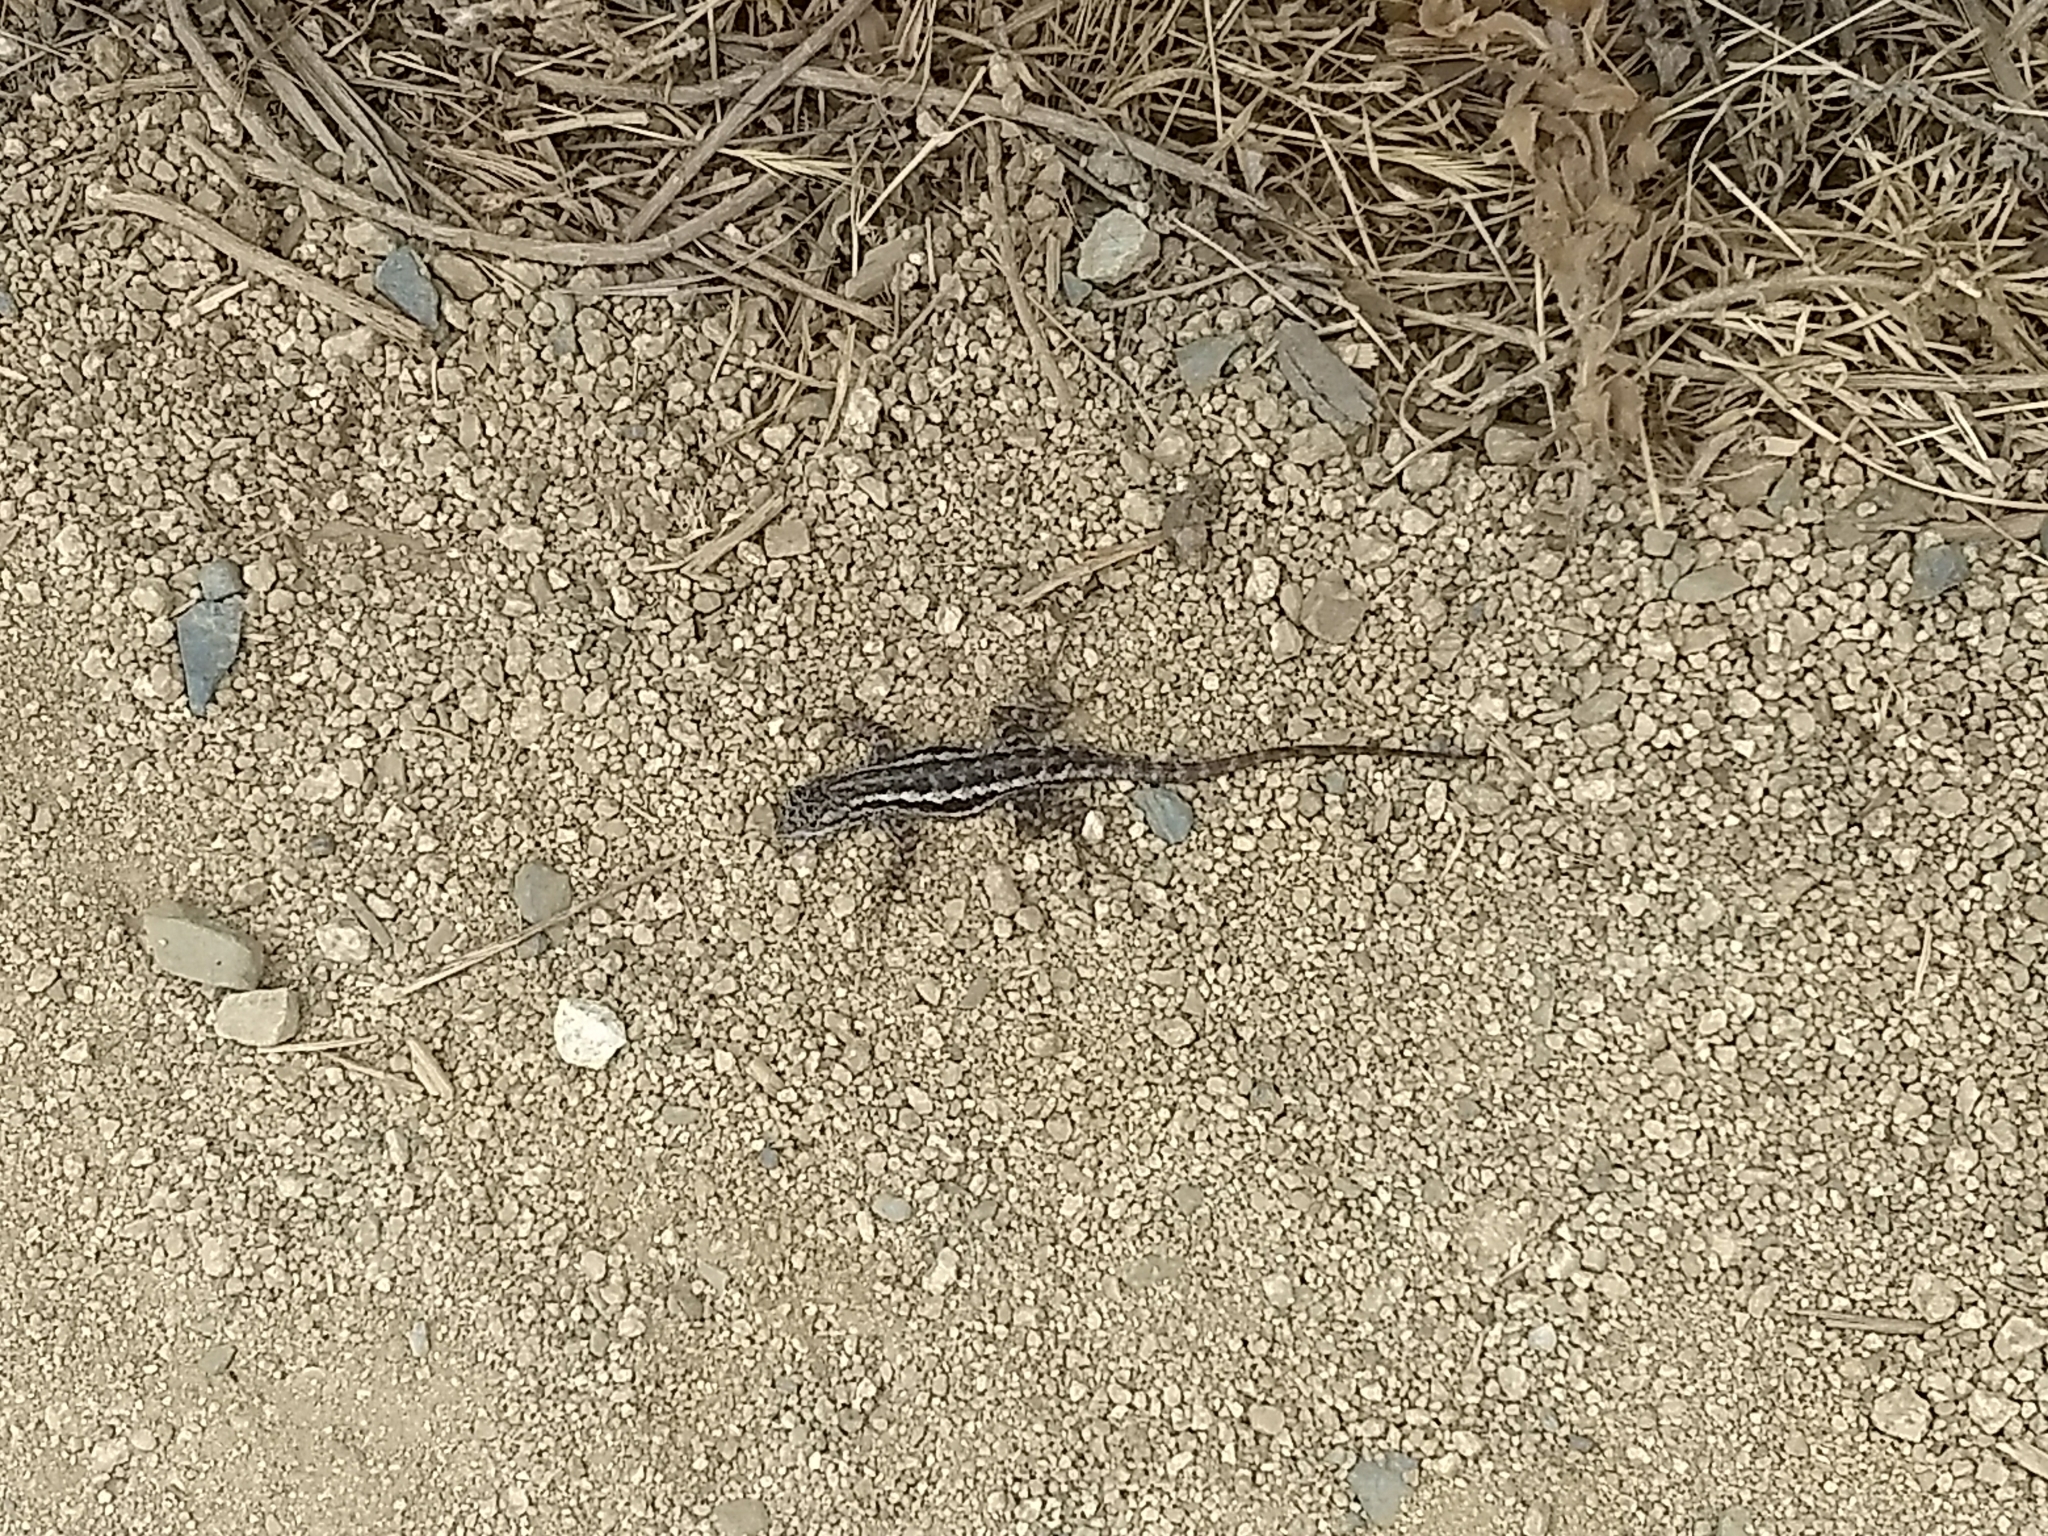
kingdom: Animalia
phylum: Chordata
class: Squamata
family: Phrynosomatidae
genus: Sceloporus
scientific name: Sceloporus occidentalis
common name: Western fence lizard
